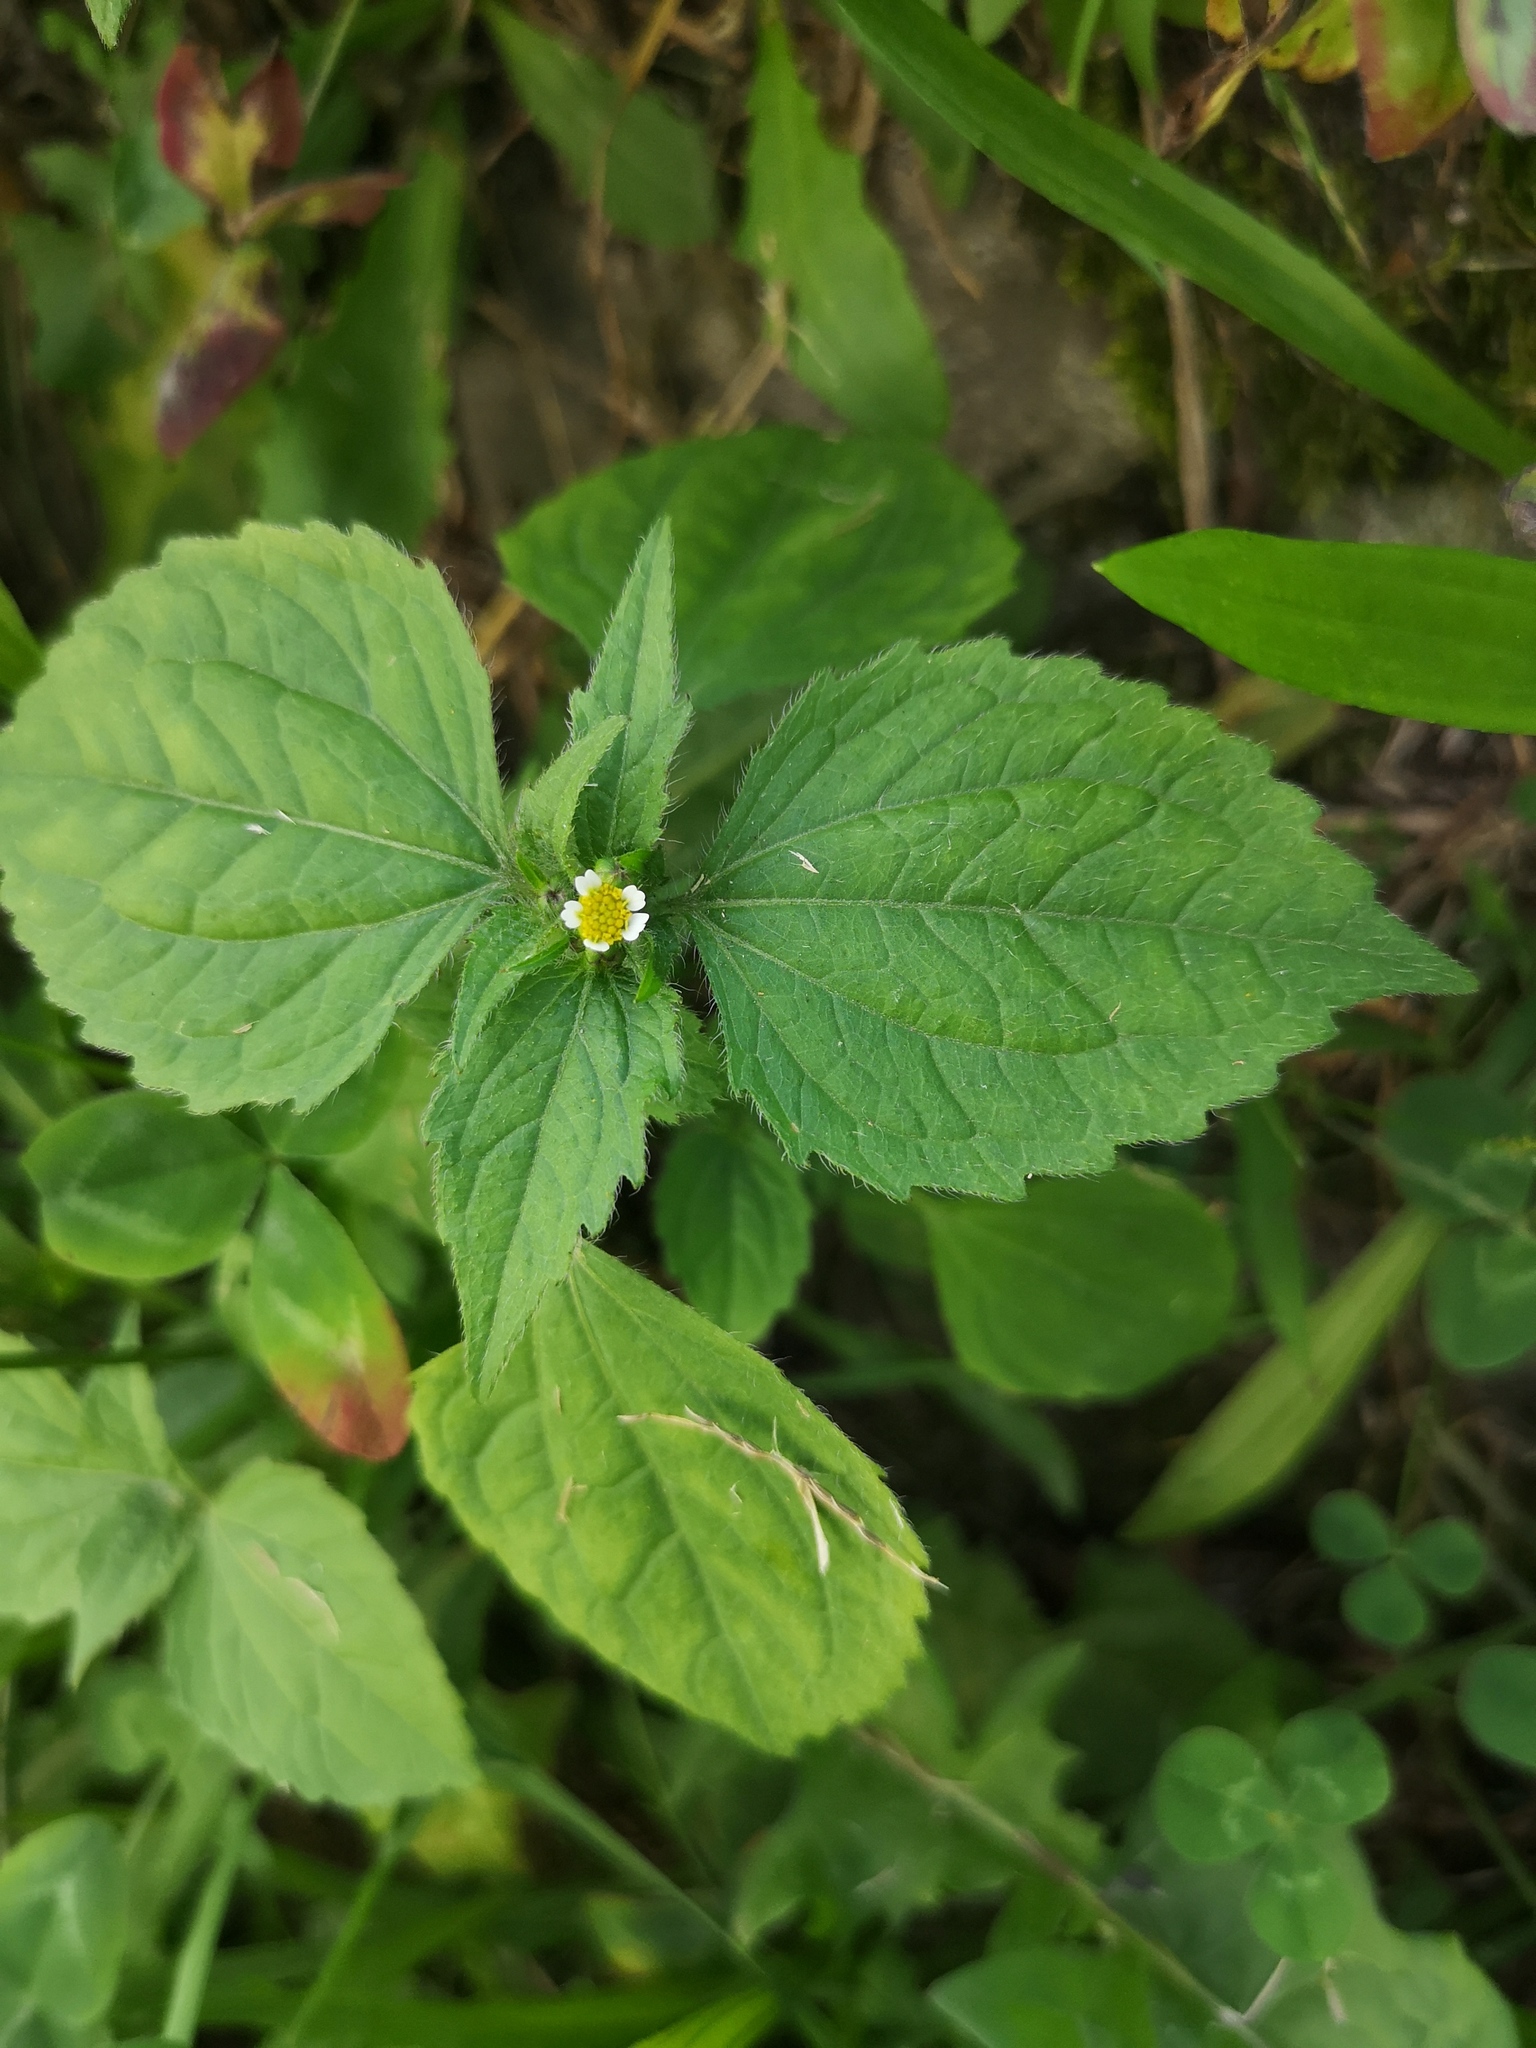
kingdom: Plantae
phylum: Tracheophyta
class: Magnoliopsida
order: Asterales
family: Asteraceae
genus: Galinsoga
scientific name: Galinsoga quadriradiata
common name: Shaggy soldier
